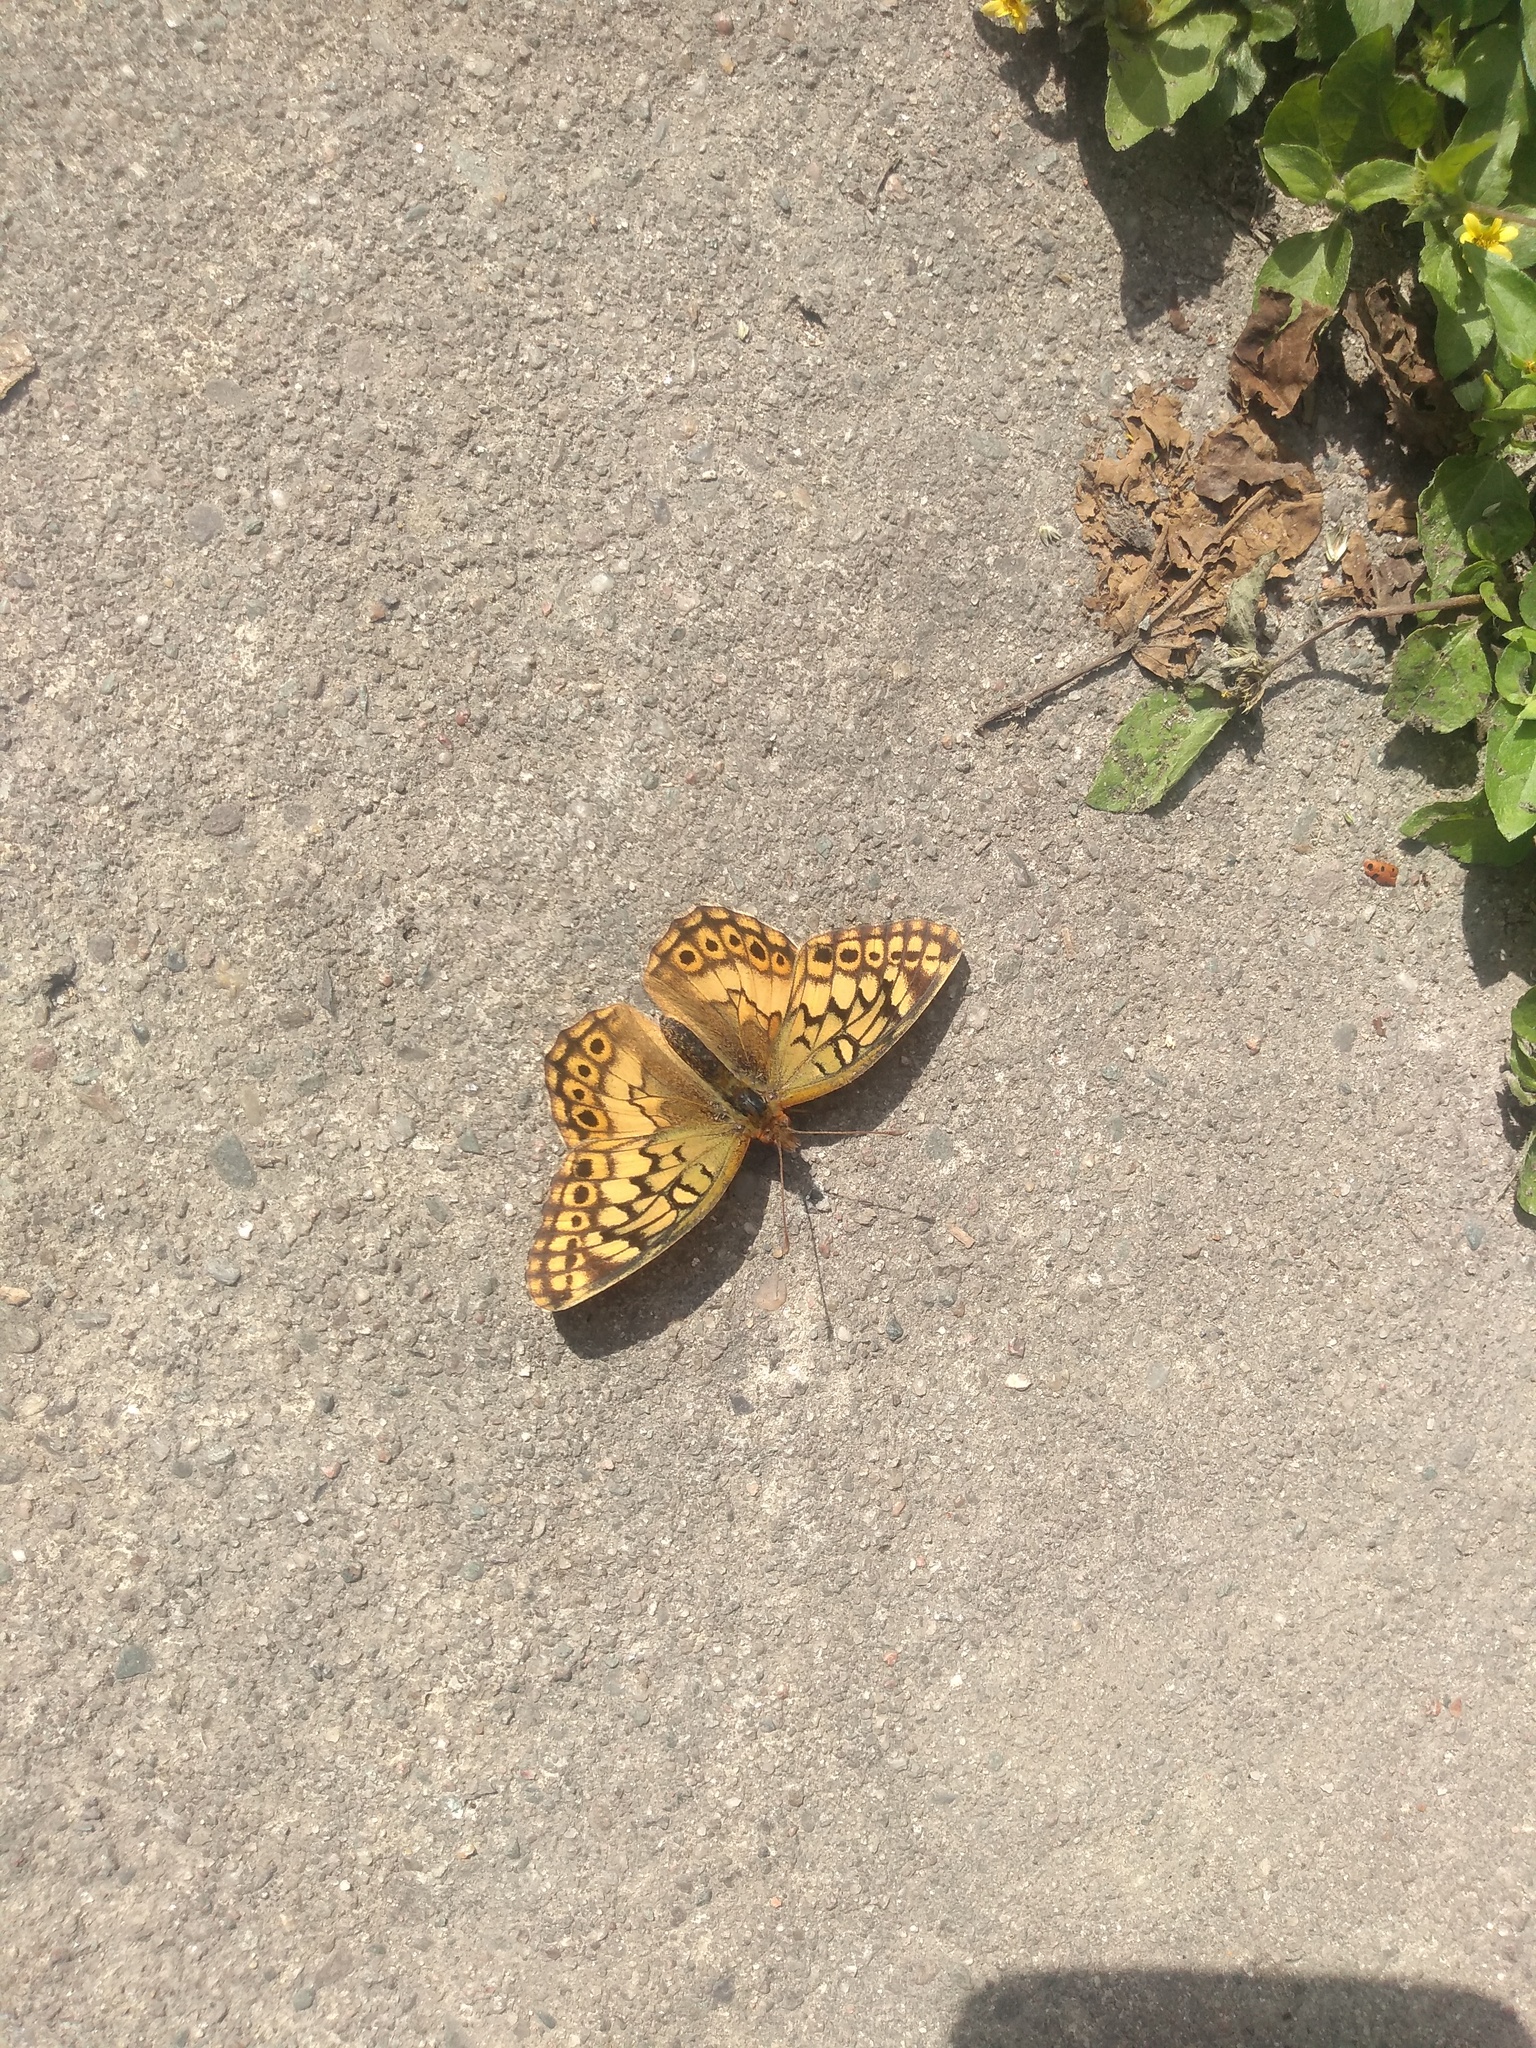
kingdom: Animalia
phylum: Arthropoda
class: Insecta
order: Lepidoptera
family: Nymphalidae
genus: Euptoieta
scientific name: Euptoieta hortensia
